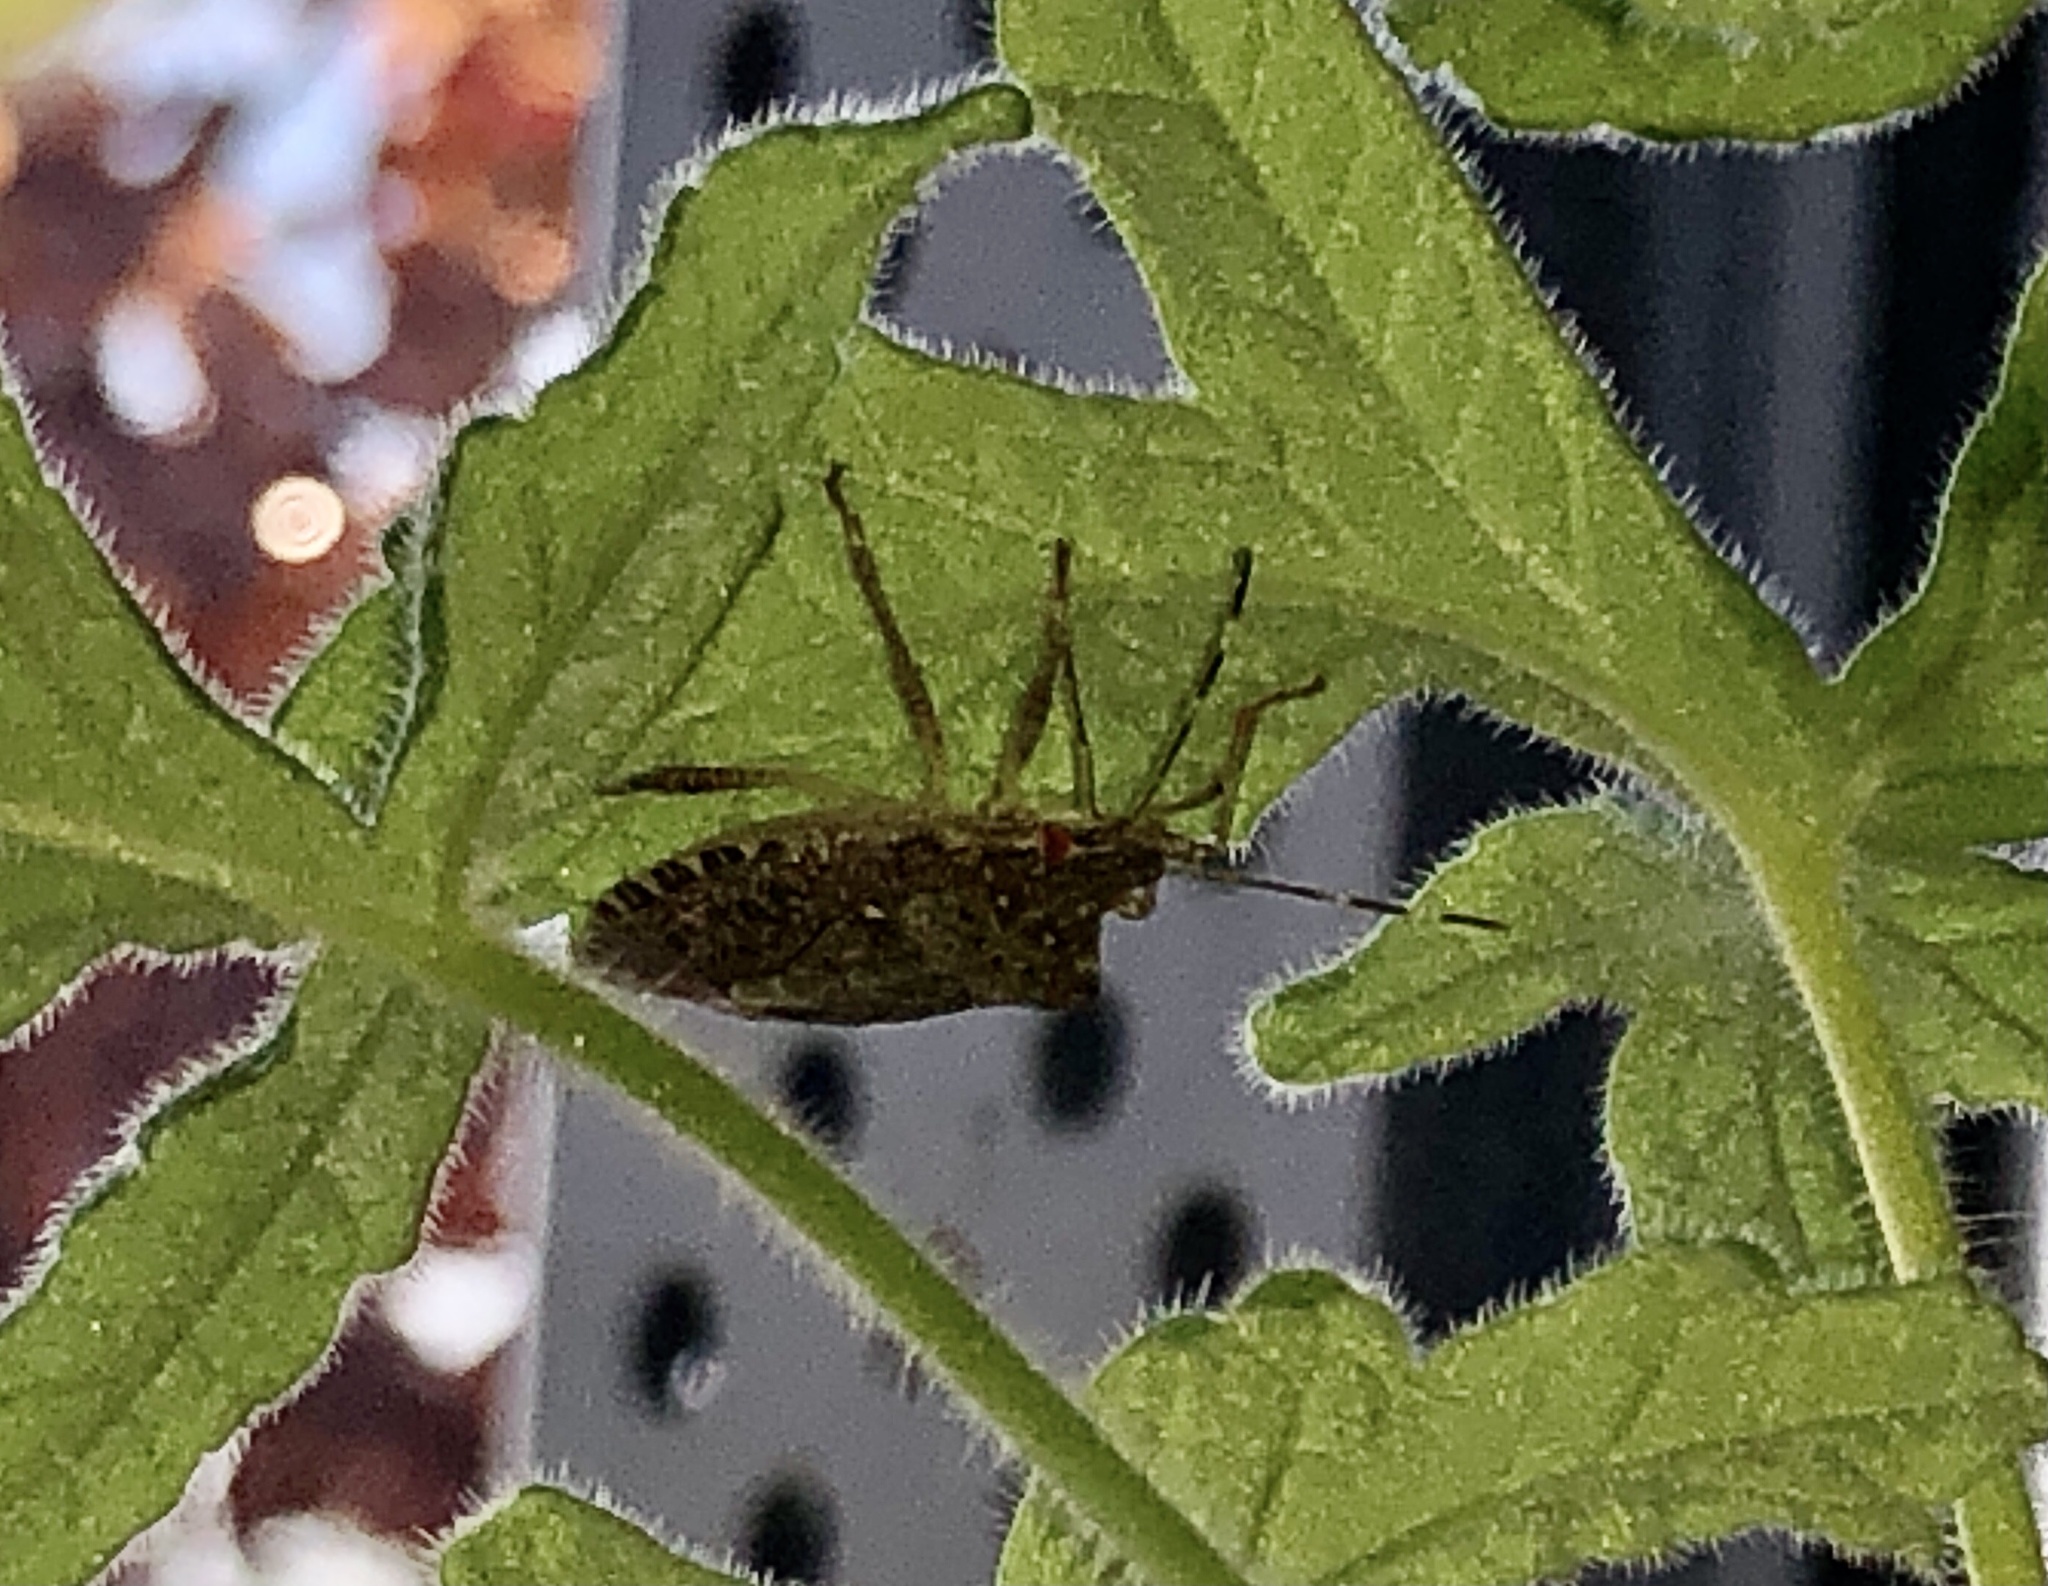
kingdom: Animalia
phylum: Arthropoda
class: Insecta
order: Hemiptera
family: Pentatomidae
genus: Halyomorpha
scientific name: Halyomorpha halys
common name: Brown marmorated stink bug
